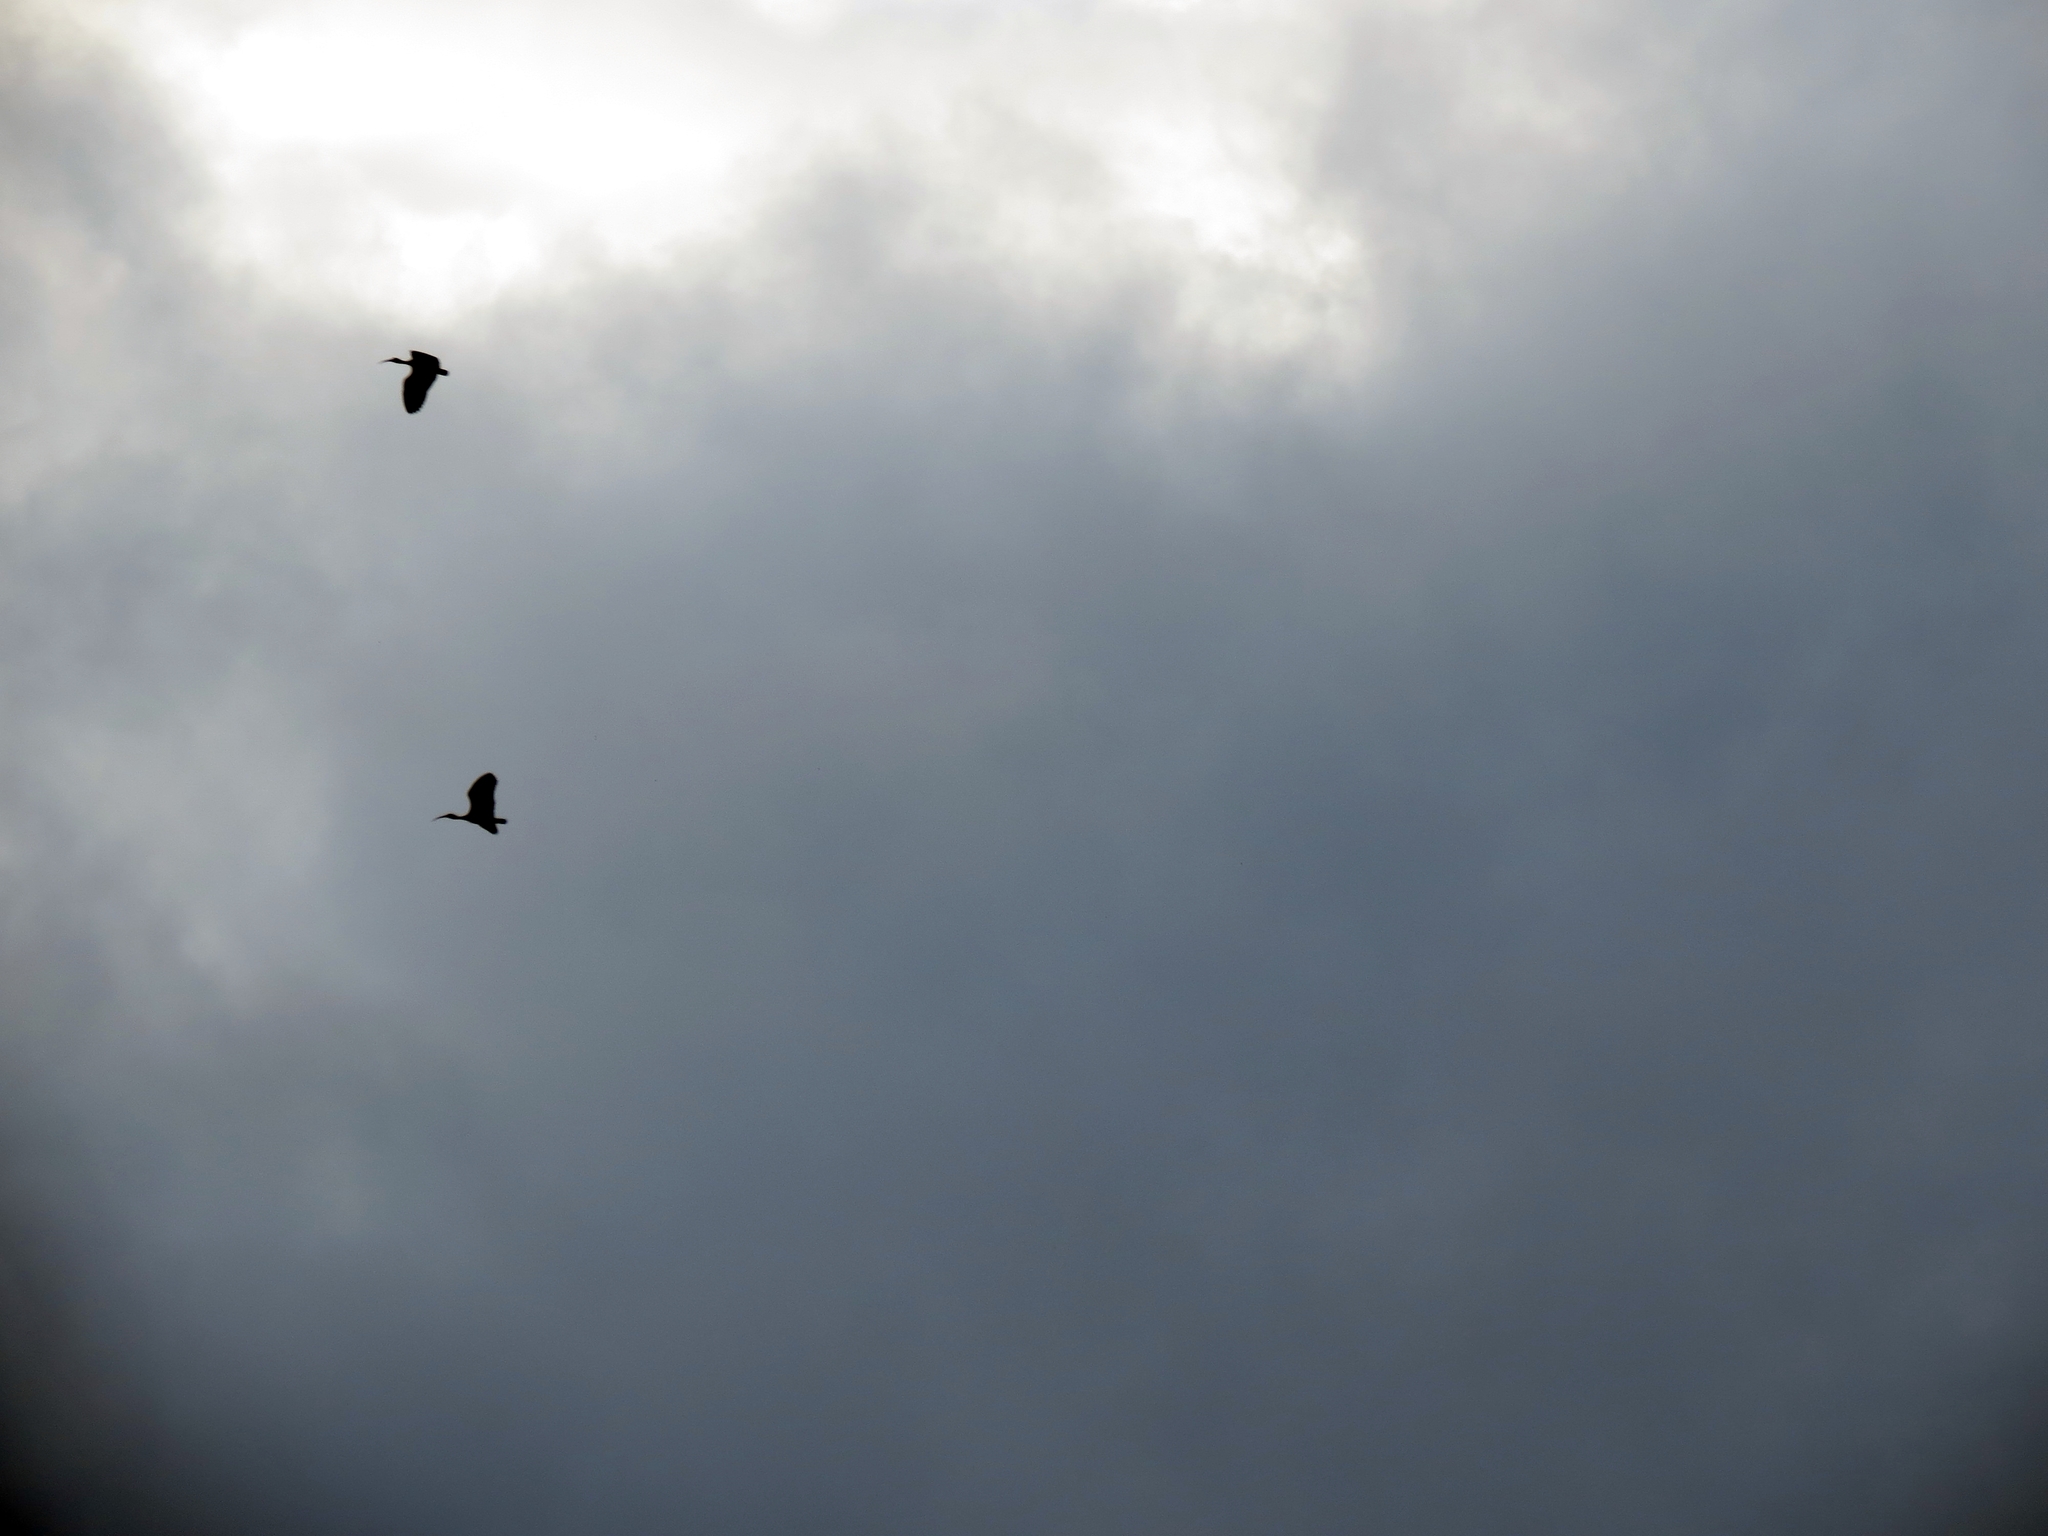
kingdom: Animalia
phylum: Chordata
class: Aves
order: Pelecaniformes
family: Threskiornithidae
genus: Phimosus
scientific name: Phimosus infuscatus
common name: Bare-faced ibis
